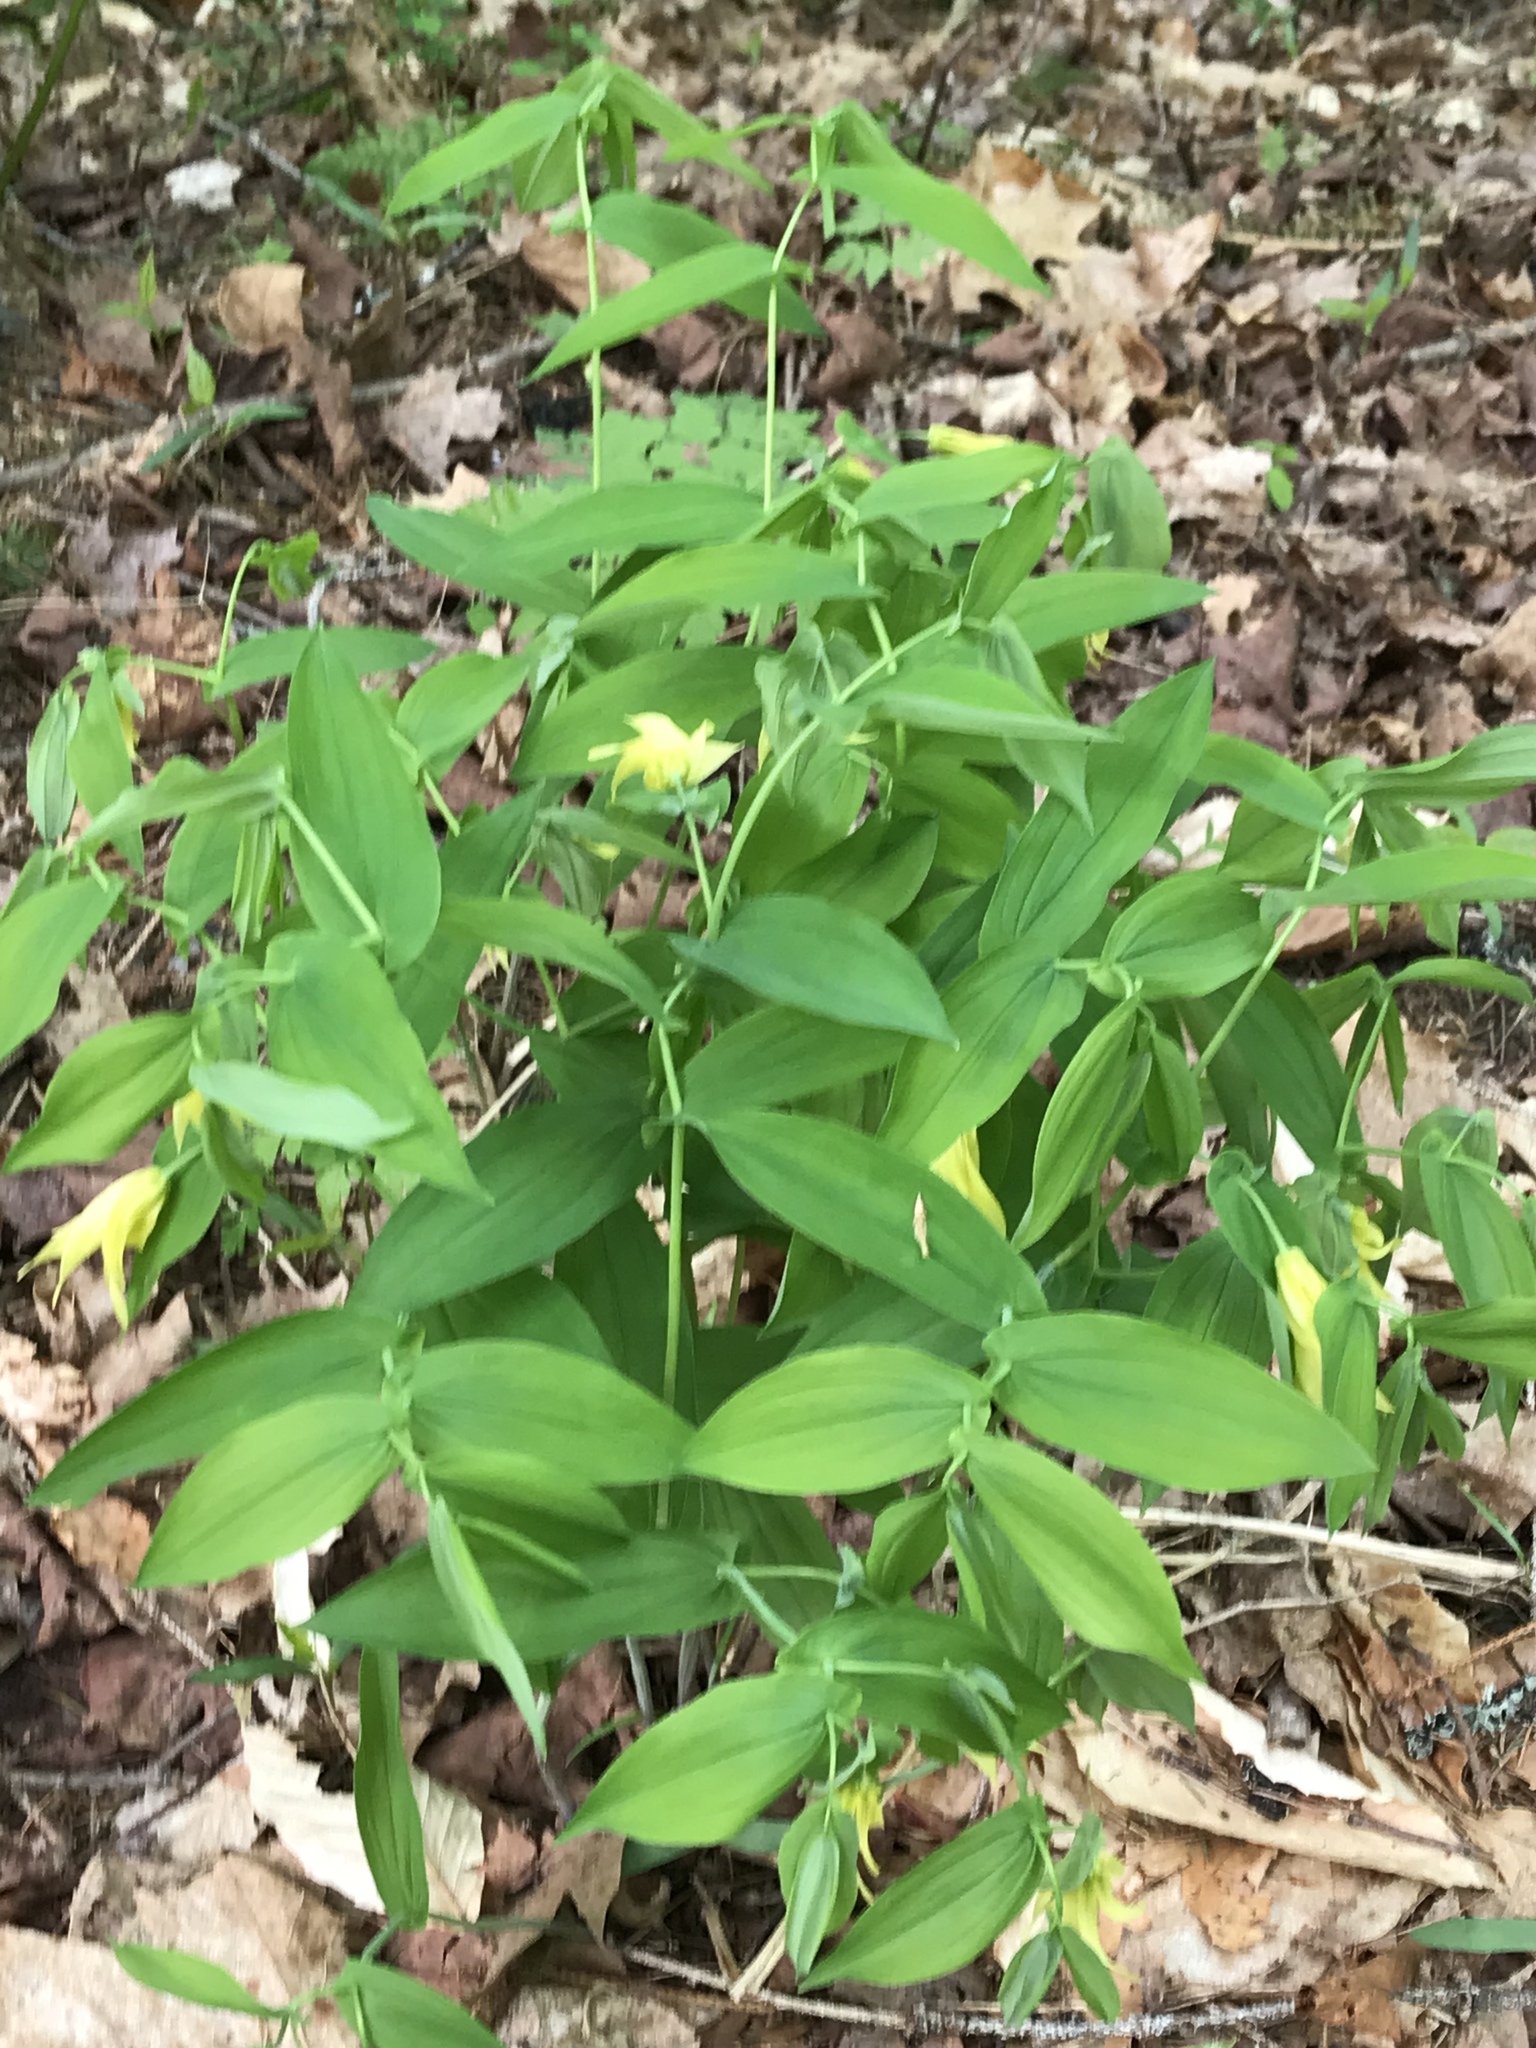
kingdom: Plantae
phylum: Tracheophyta
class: Liliopsida
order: Liliales
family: Colchicaceae
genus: Uvularia
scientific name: Uvularia grandiflora
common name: Bellwort
